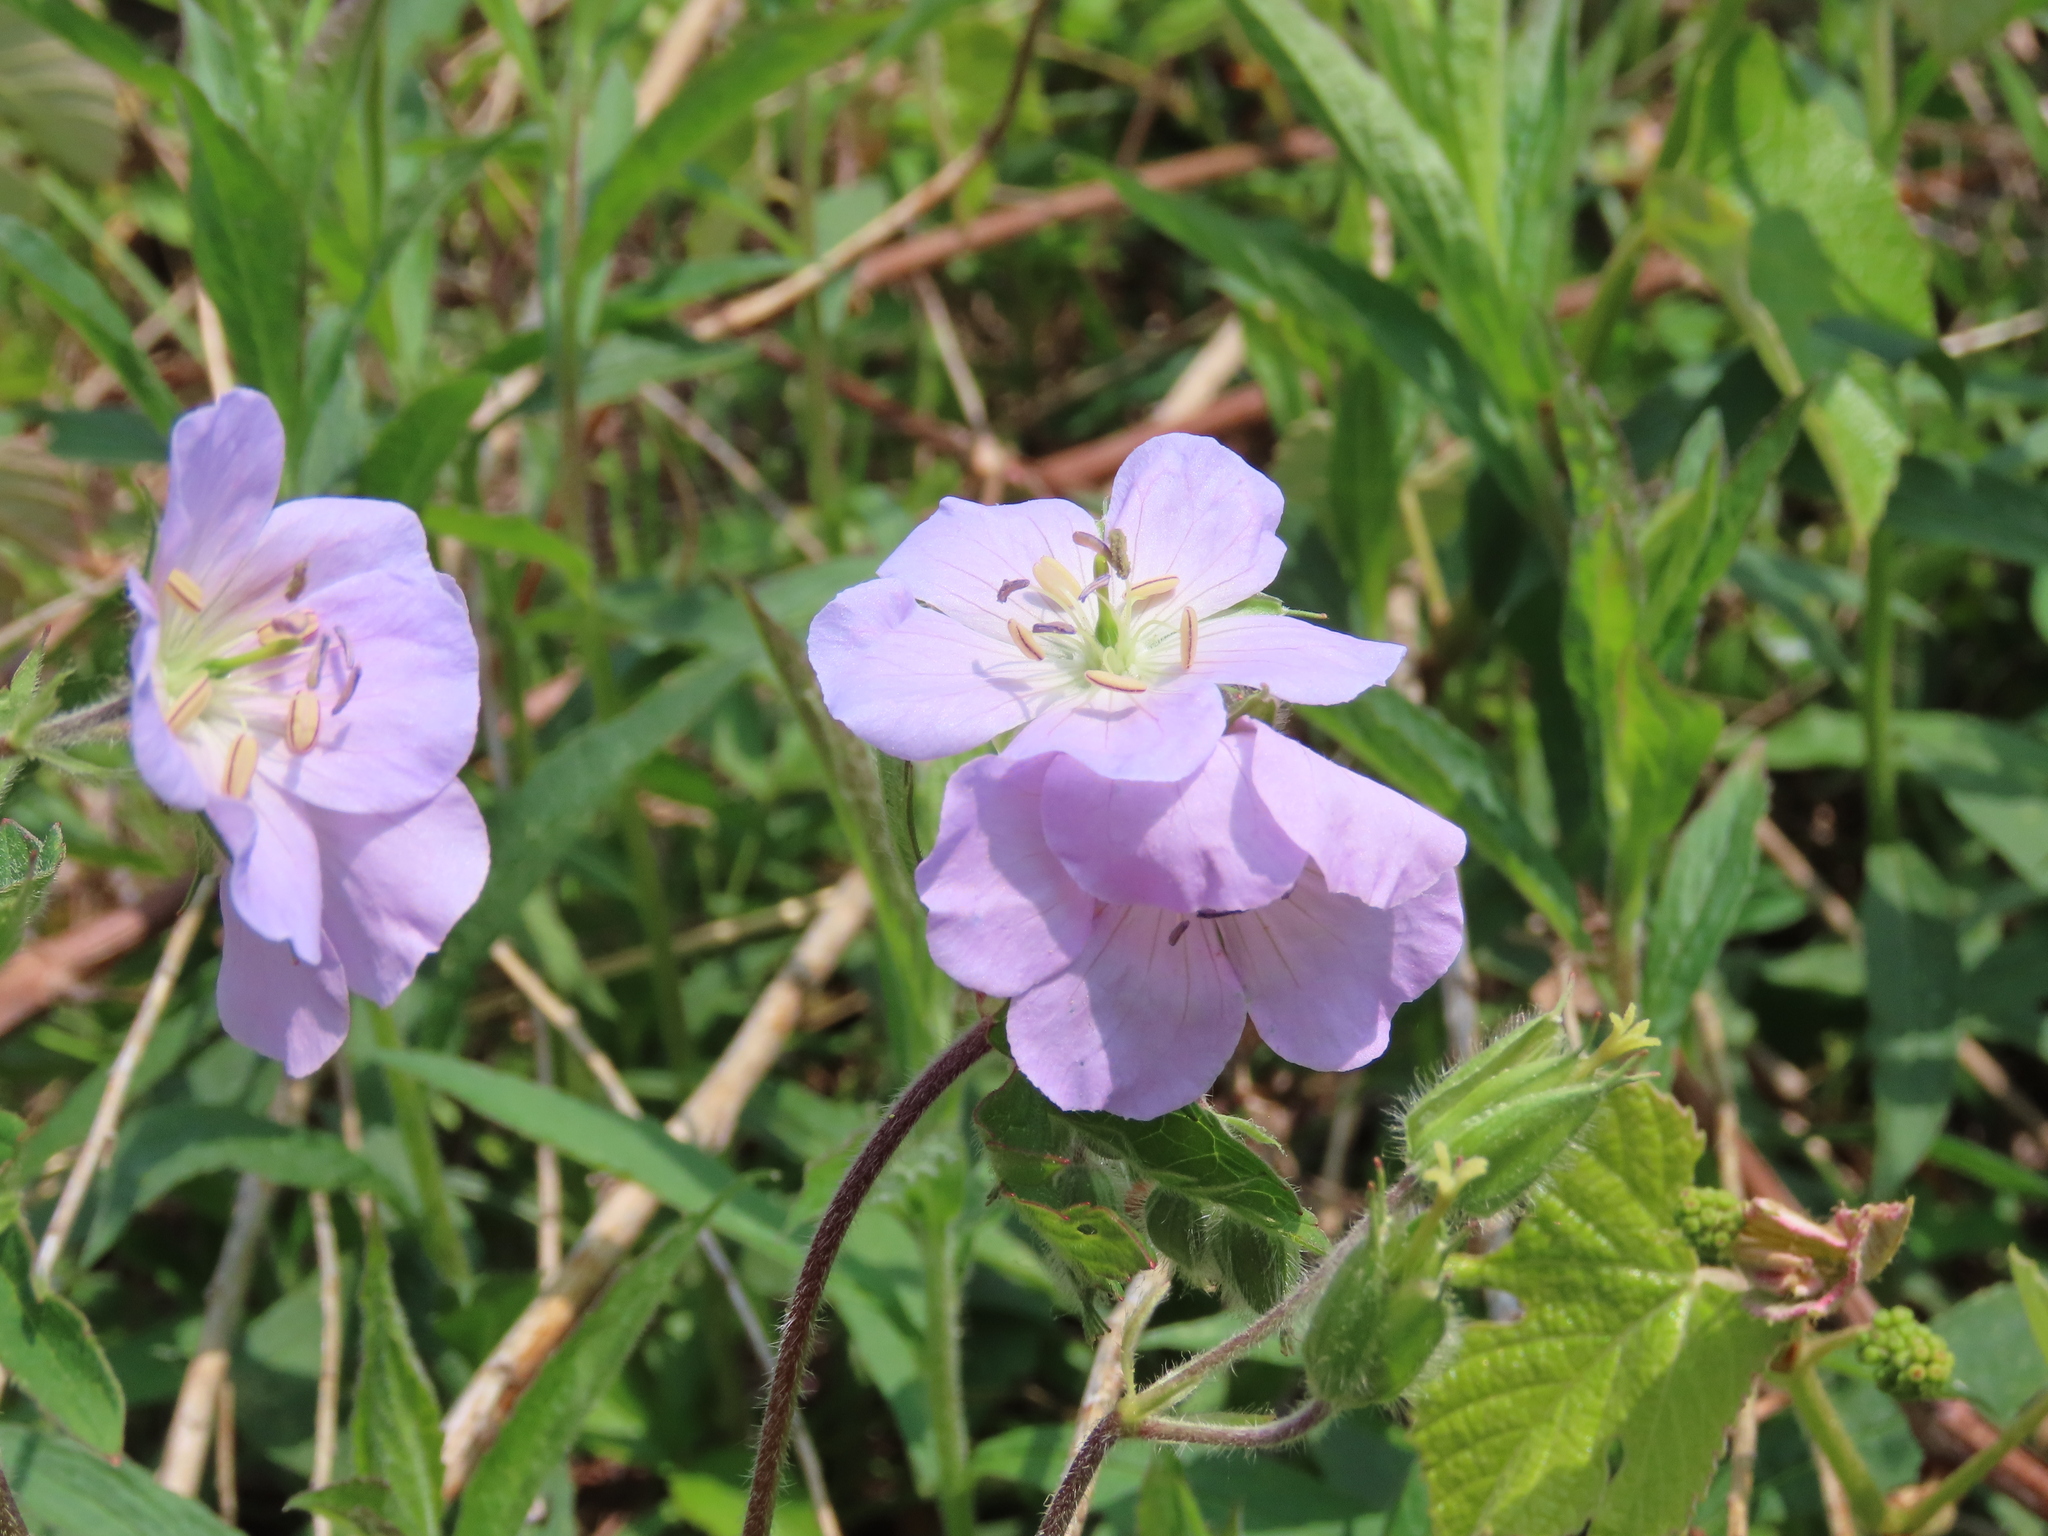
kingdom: Plantae
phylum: Tracheophyta
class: Magnoliopsida
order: Geraniales
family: Geraniaceae
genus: Geranium
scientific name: Geranium maculatum
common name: Spotted geranium
